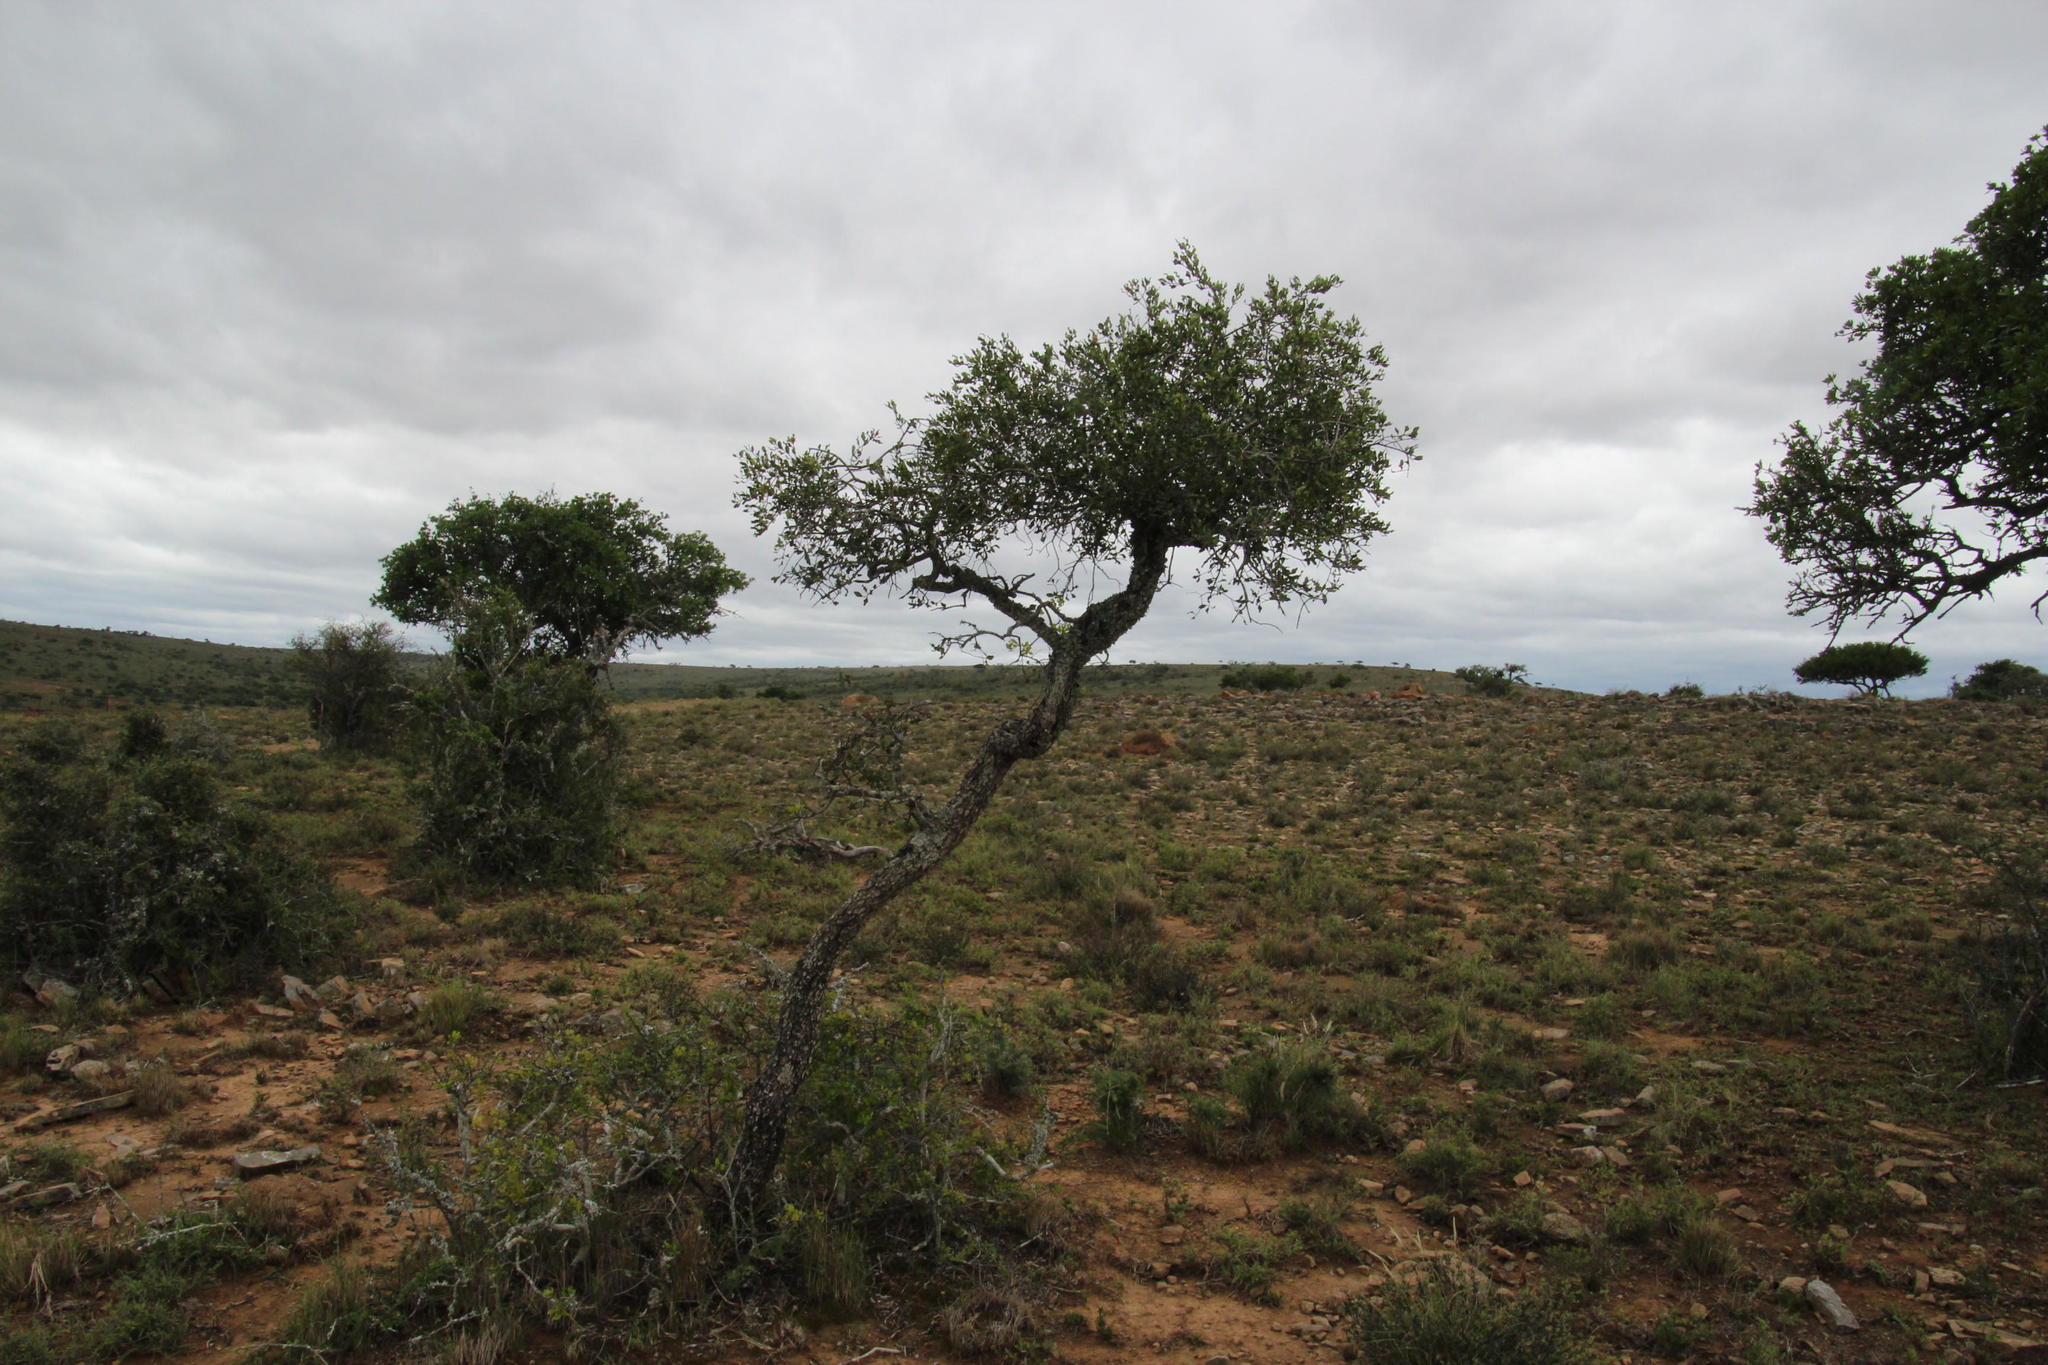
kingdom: Plantae
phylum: Tracheophyta
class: Magnoliopsida
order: Ericales
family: Ebenaceae
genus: Euclea
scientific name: Euclea undulata
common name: Small-leaved guarri
